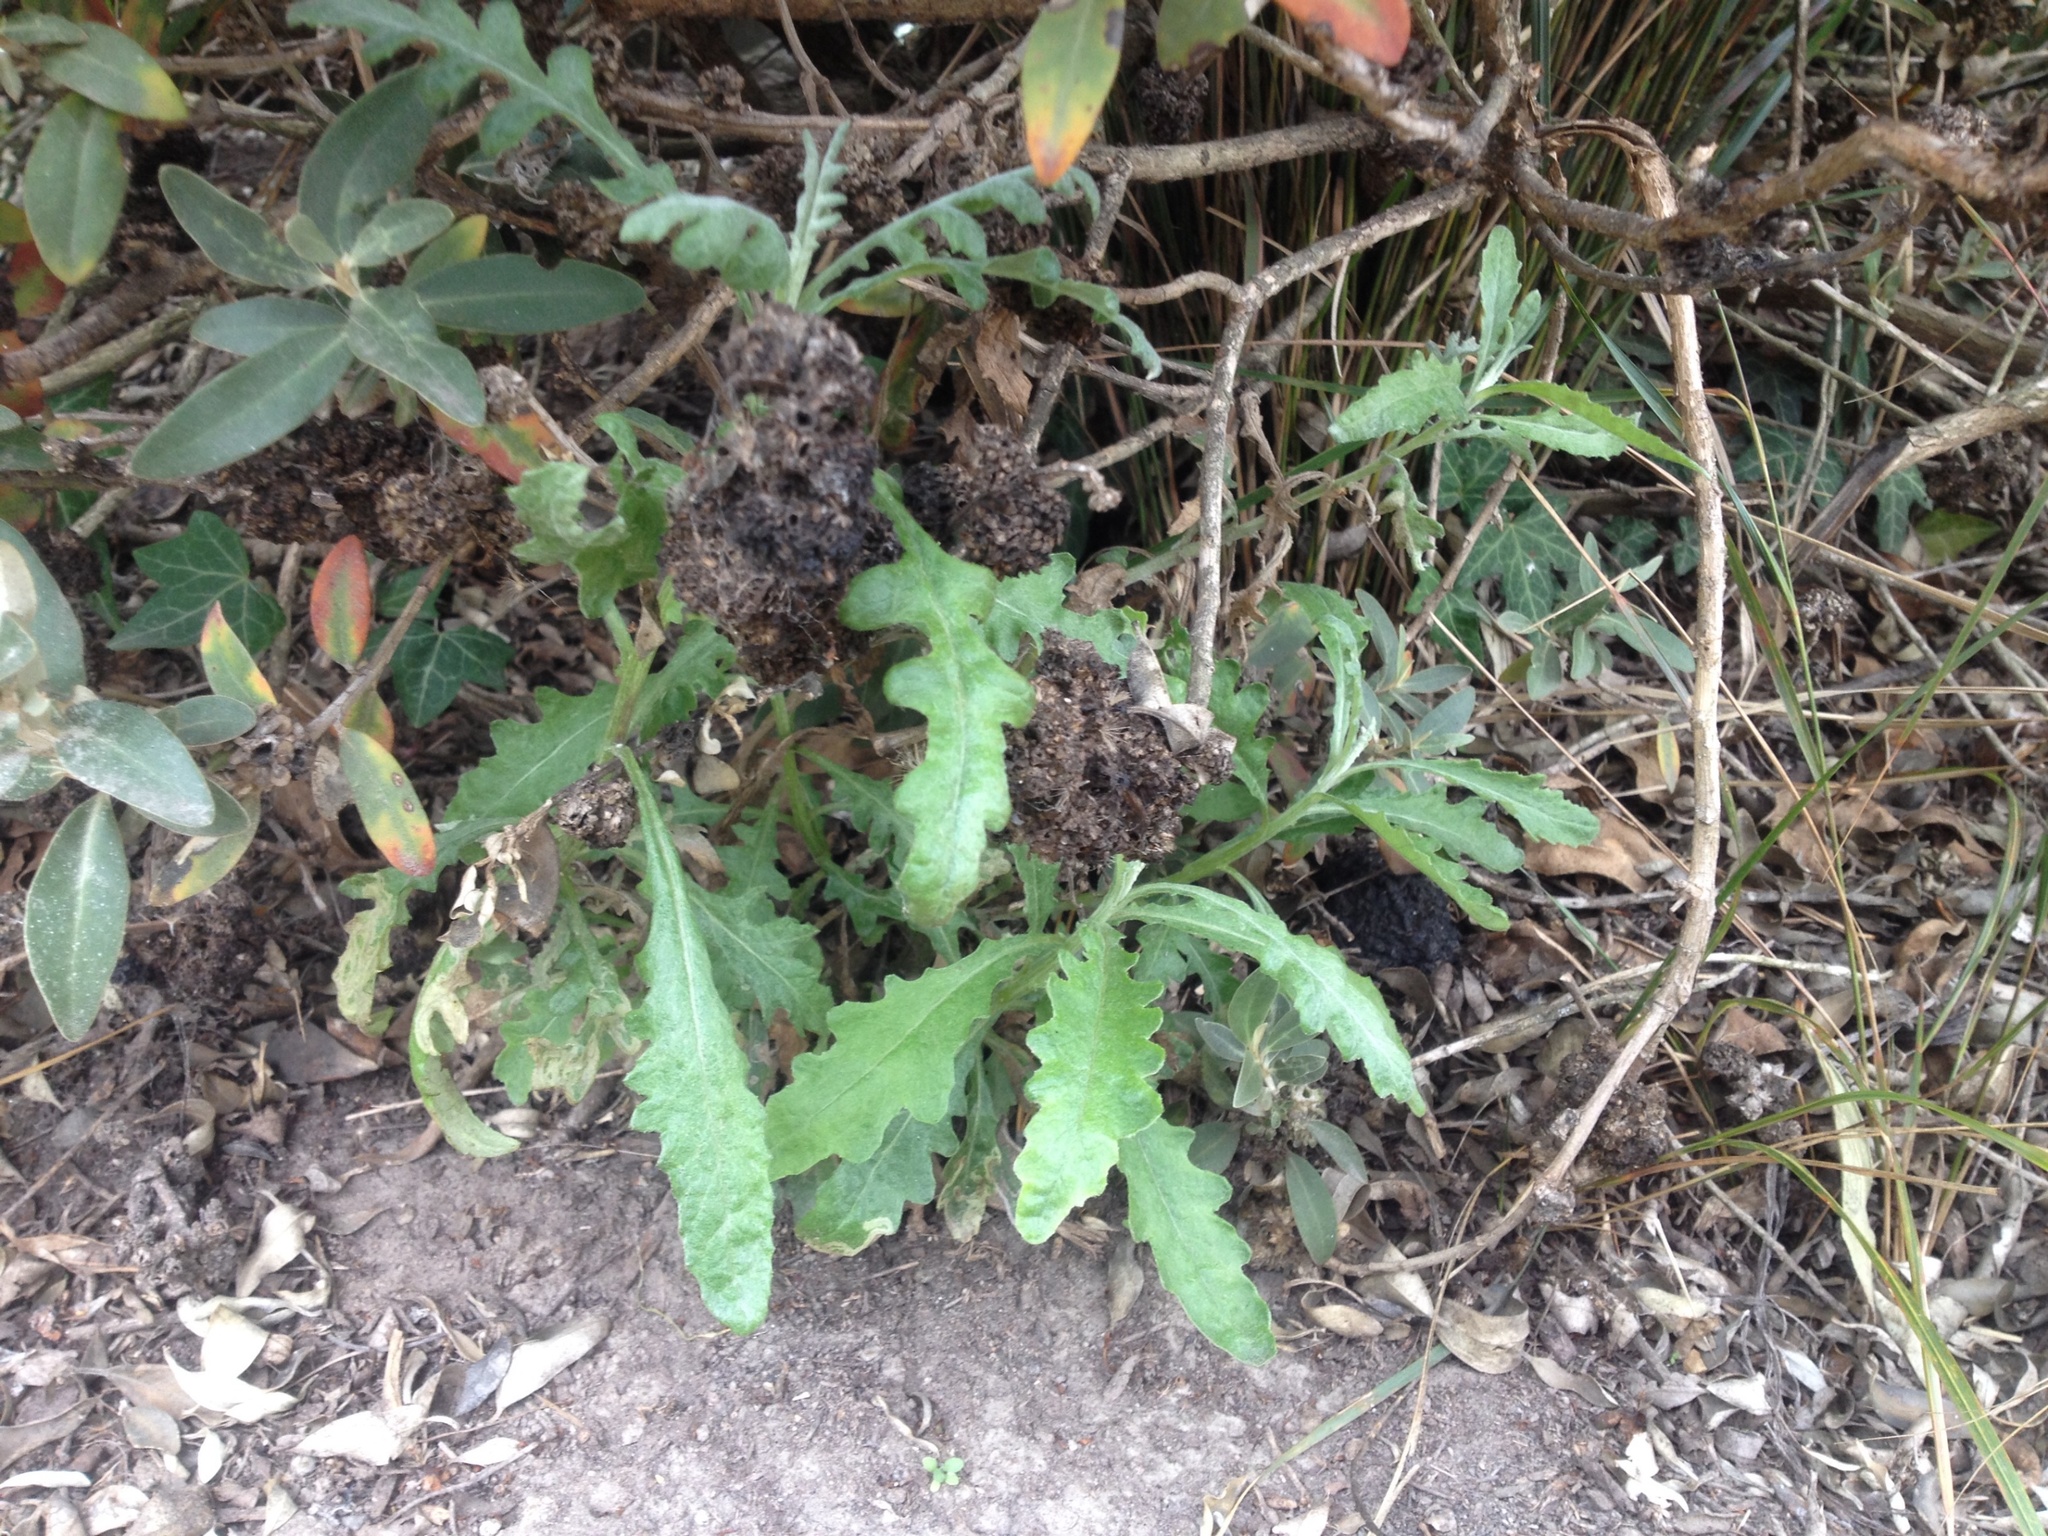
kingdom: Plantae
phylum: Tracheophyta
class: Magnoliopsida
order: Asterales
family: Asteraceae
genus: Senecio
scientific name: Senecio glomeratus
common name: Cutleaf burnweed
